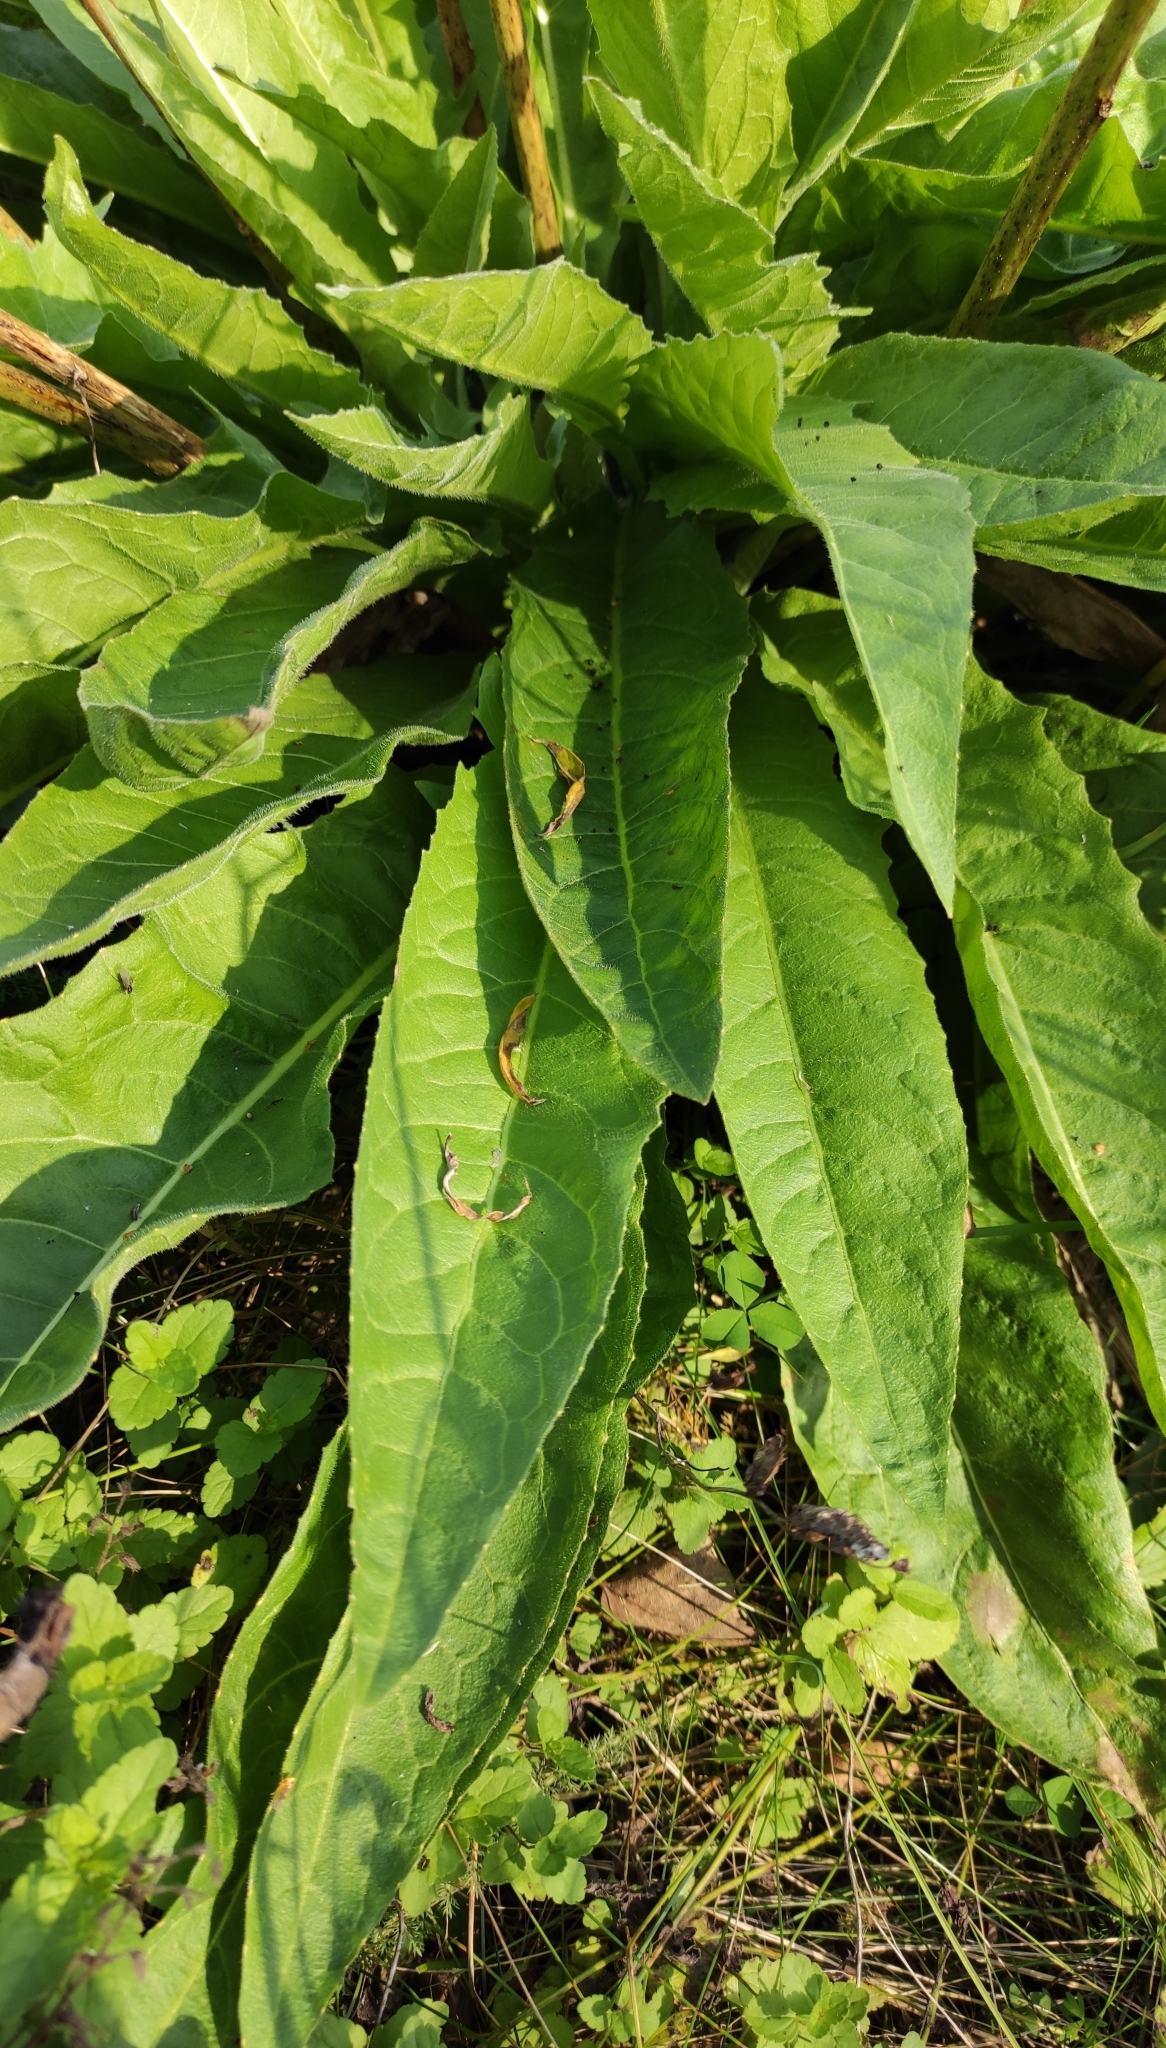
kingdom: Plantae
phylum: Tracheophyta
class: Magnoliopsida
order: Brassicales
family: Brassicaceae
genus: Bunias
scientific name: Bunias orientalis
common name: Warty-cabbage
